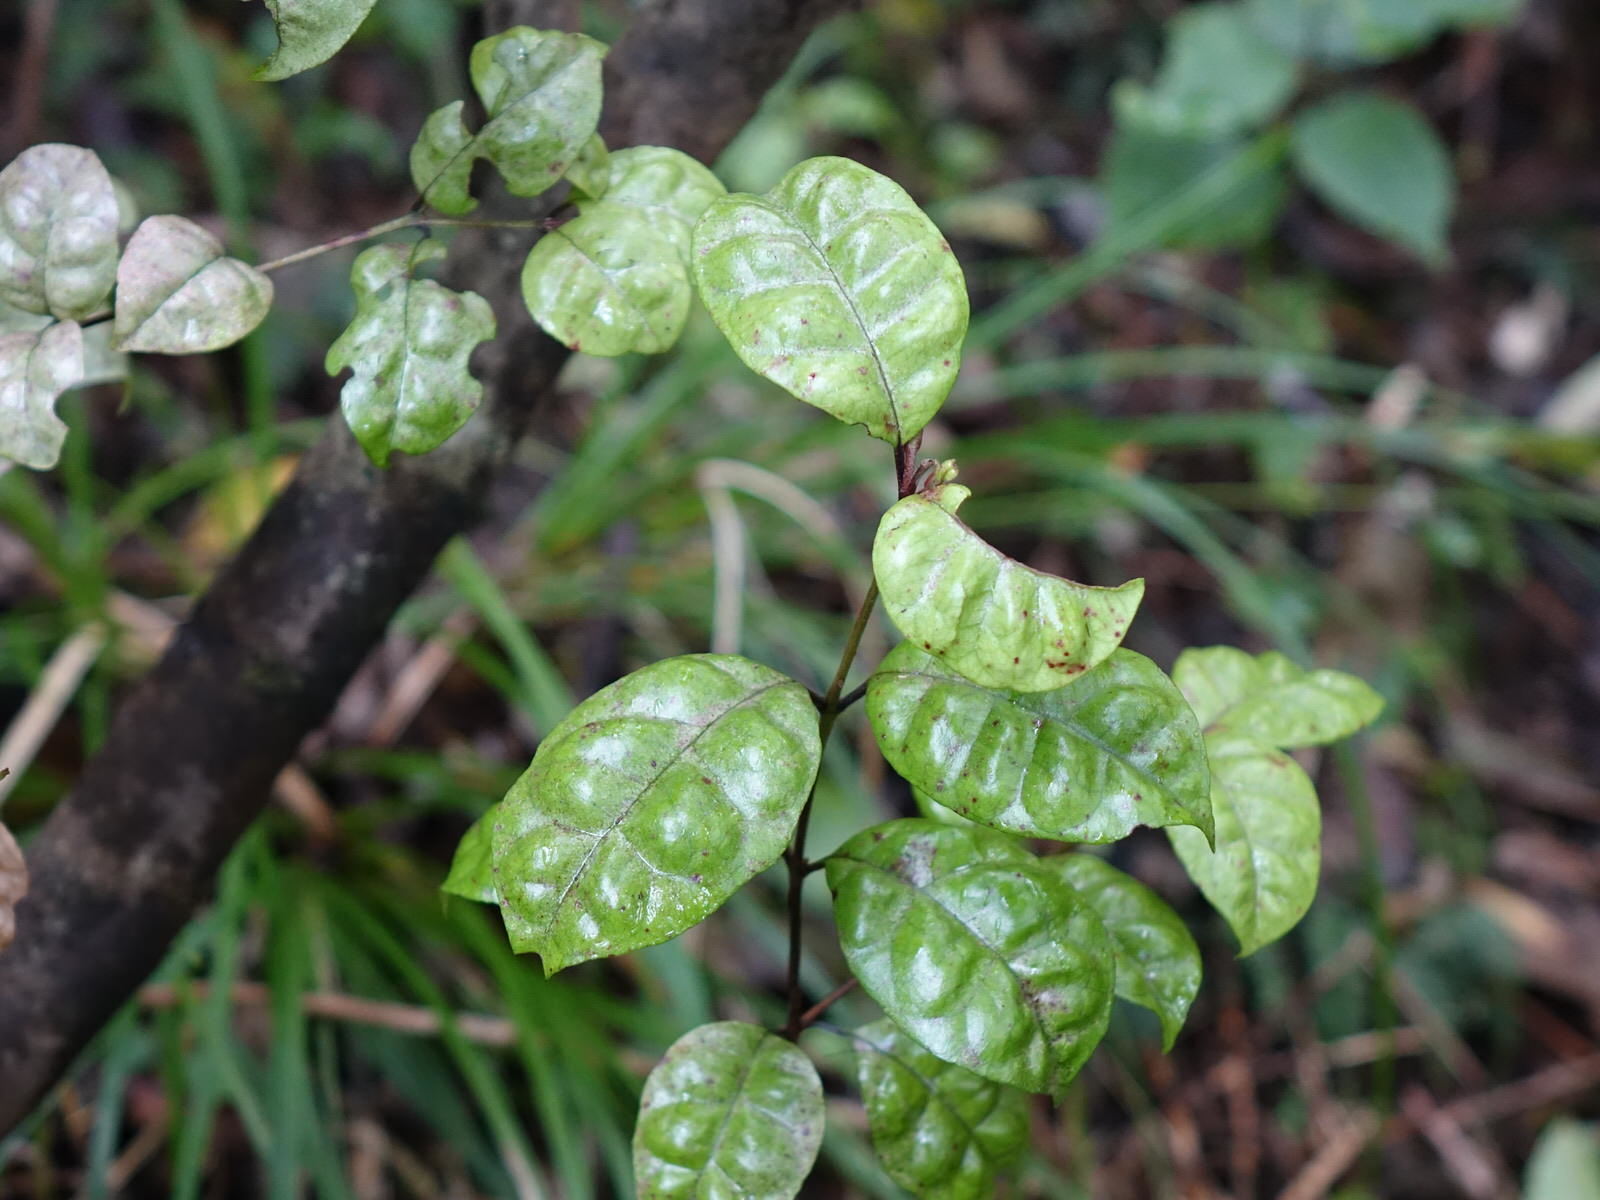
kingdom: Plantae
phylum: Tracheophyta
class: Magnoliopsida
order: Myrtales
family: Myrtaceae
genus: Lophomyrtus
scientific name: Lophomyrtus bullata
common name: Rama rama
